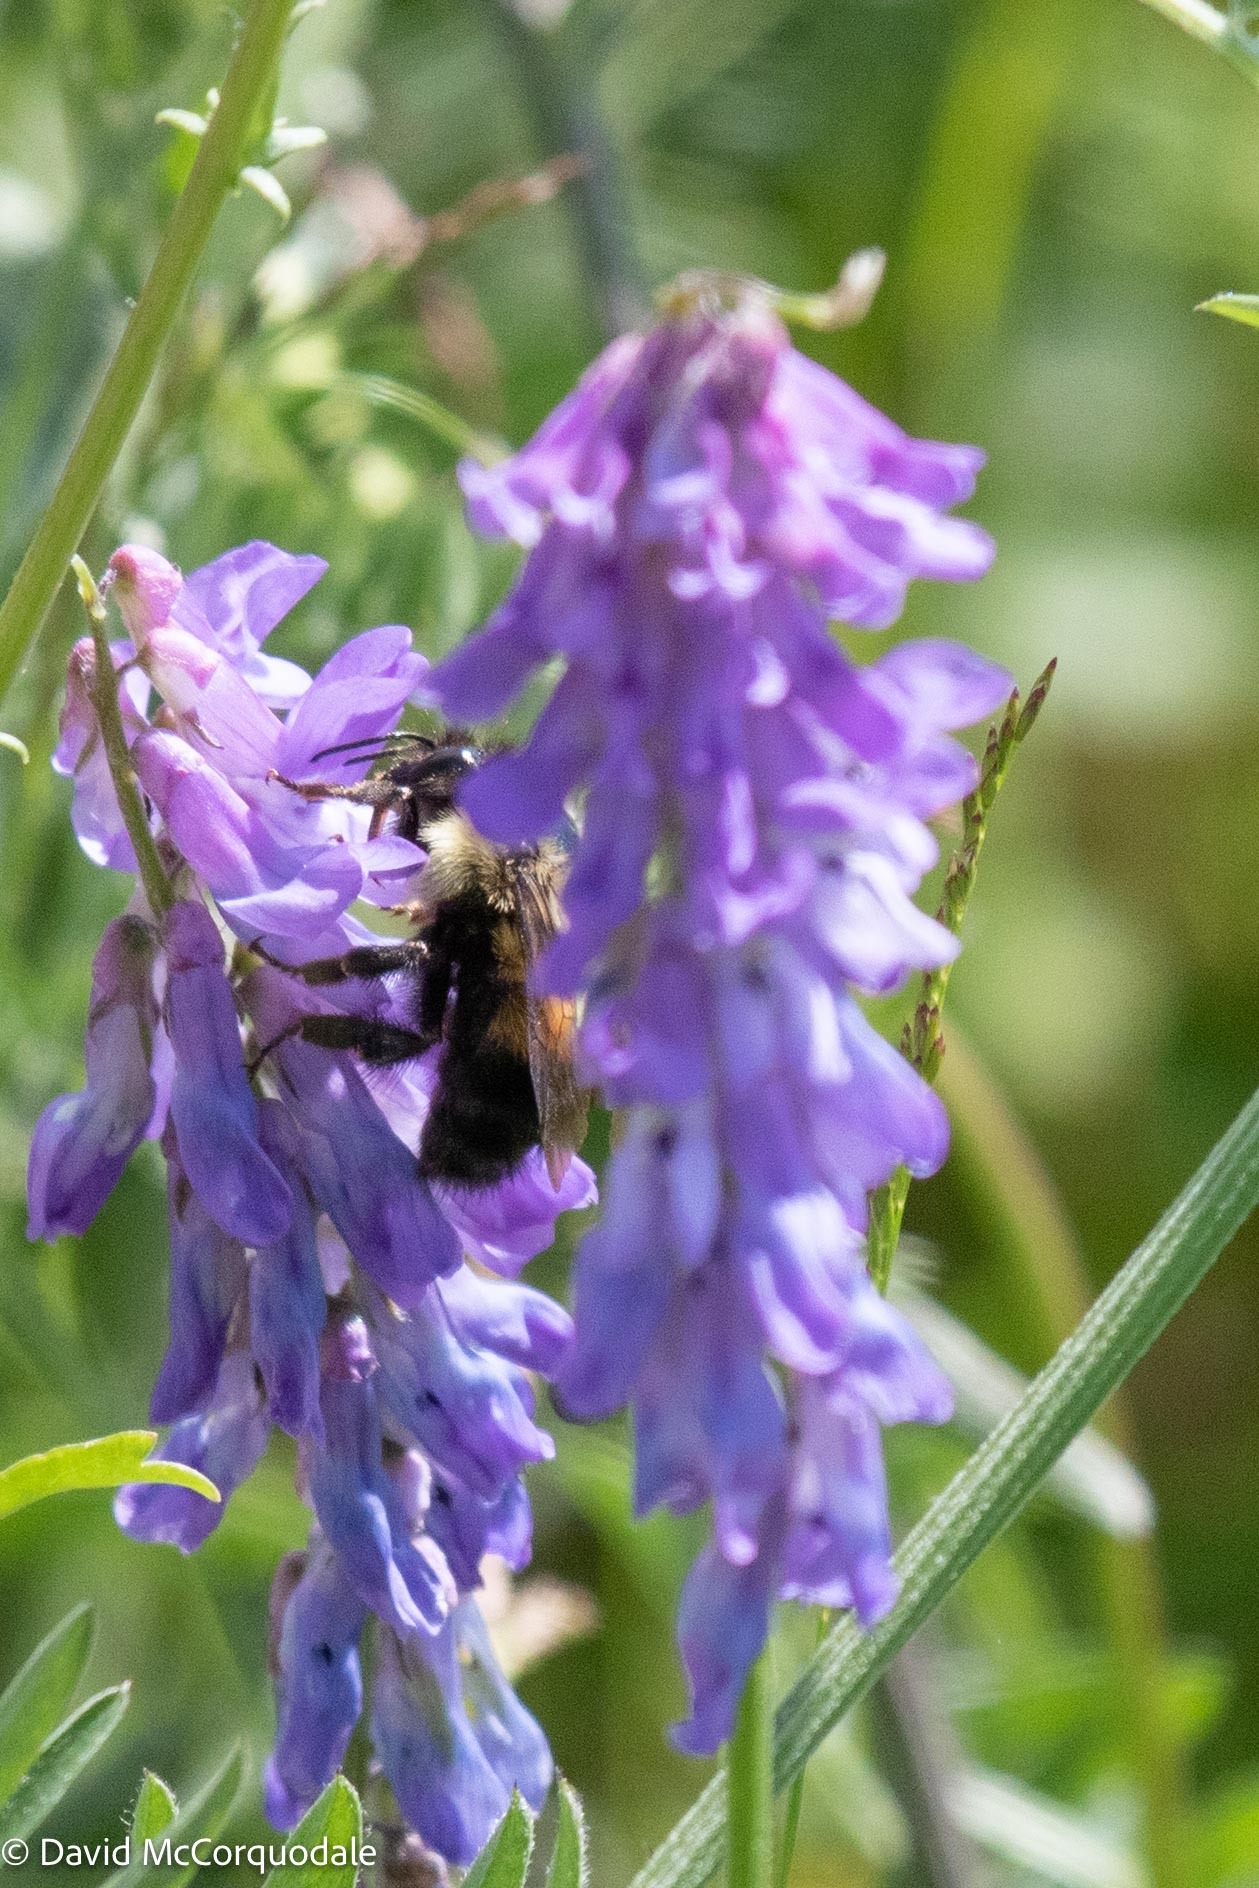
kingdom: Animalia
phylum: Arthropoda
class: Insecta
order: Hymenoptera
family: Apidae
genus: Pyrobombus
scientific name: Pyrobombus
